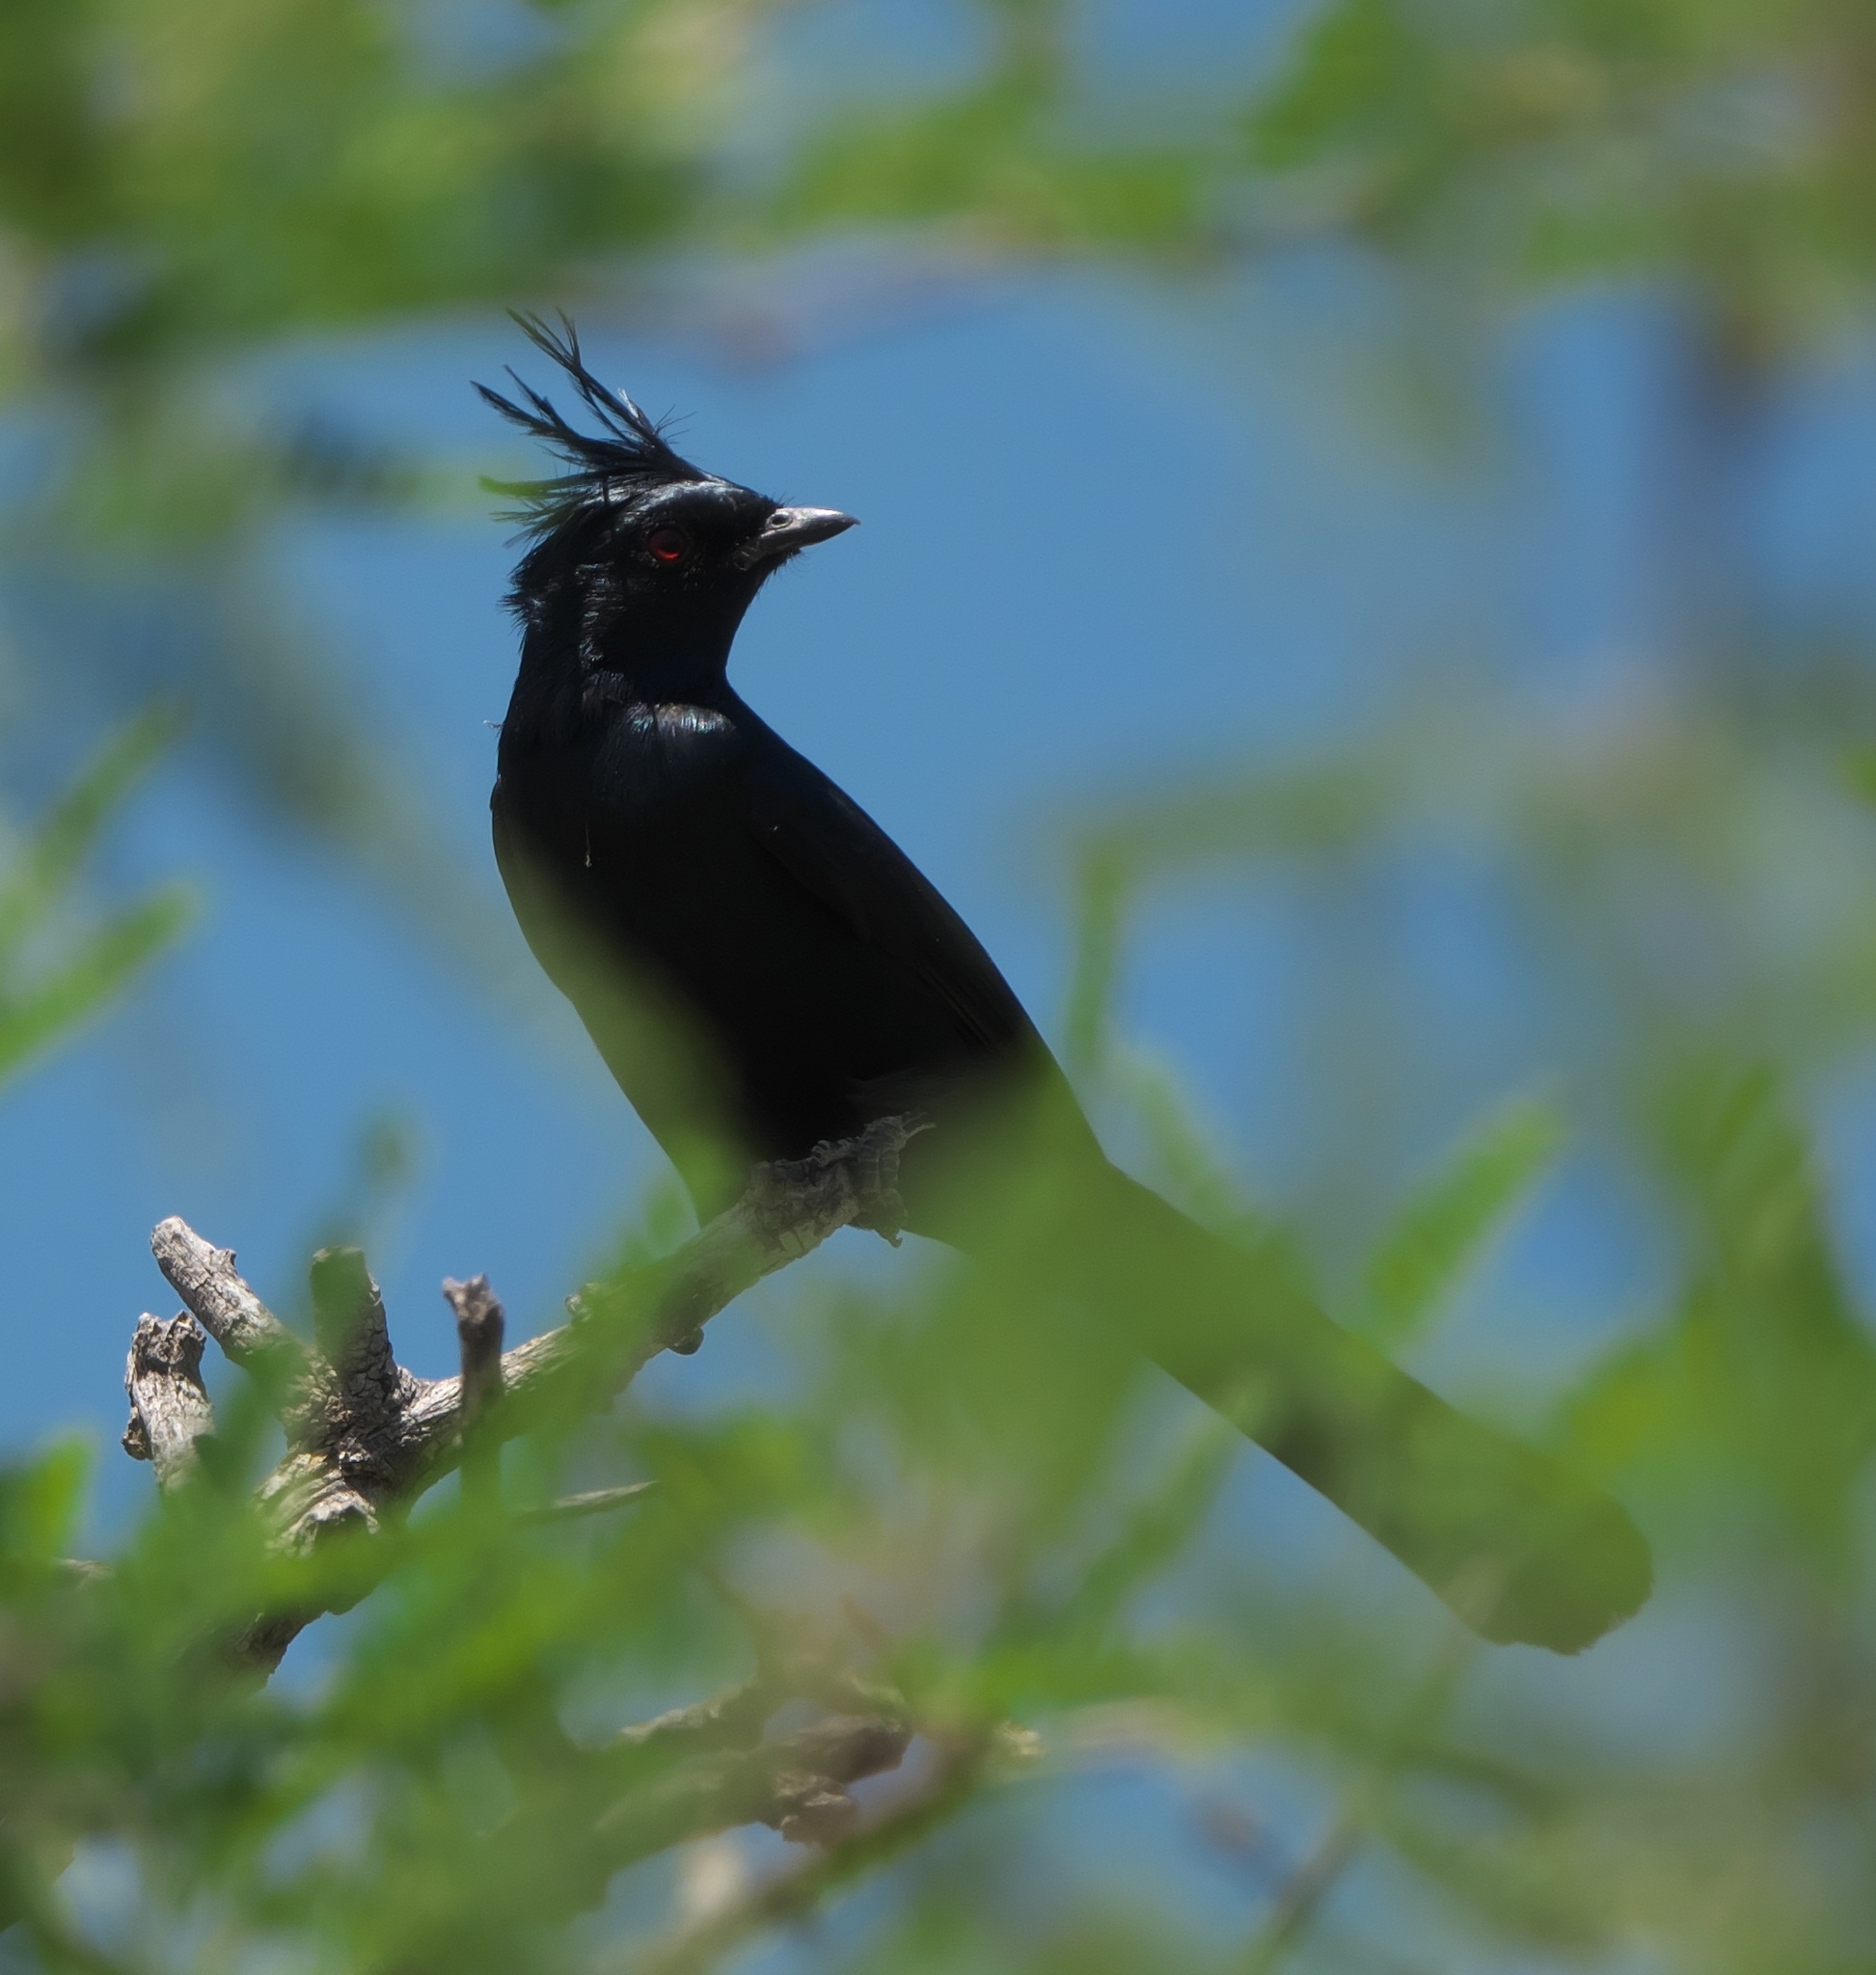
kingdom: Animalia
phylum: Chordata
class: Aves
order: Passeriformes
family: Ptilogonatidae
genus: Phainopepla
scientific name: Phainopepla nitens
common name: Phainopepla
